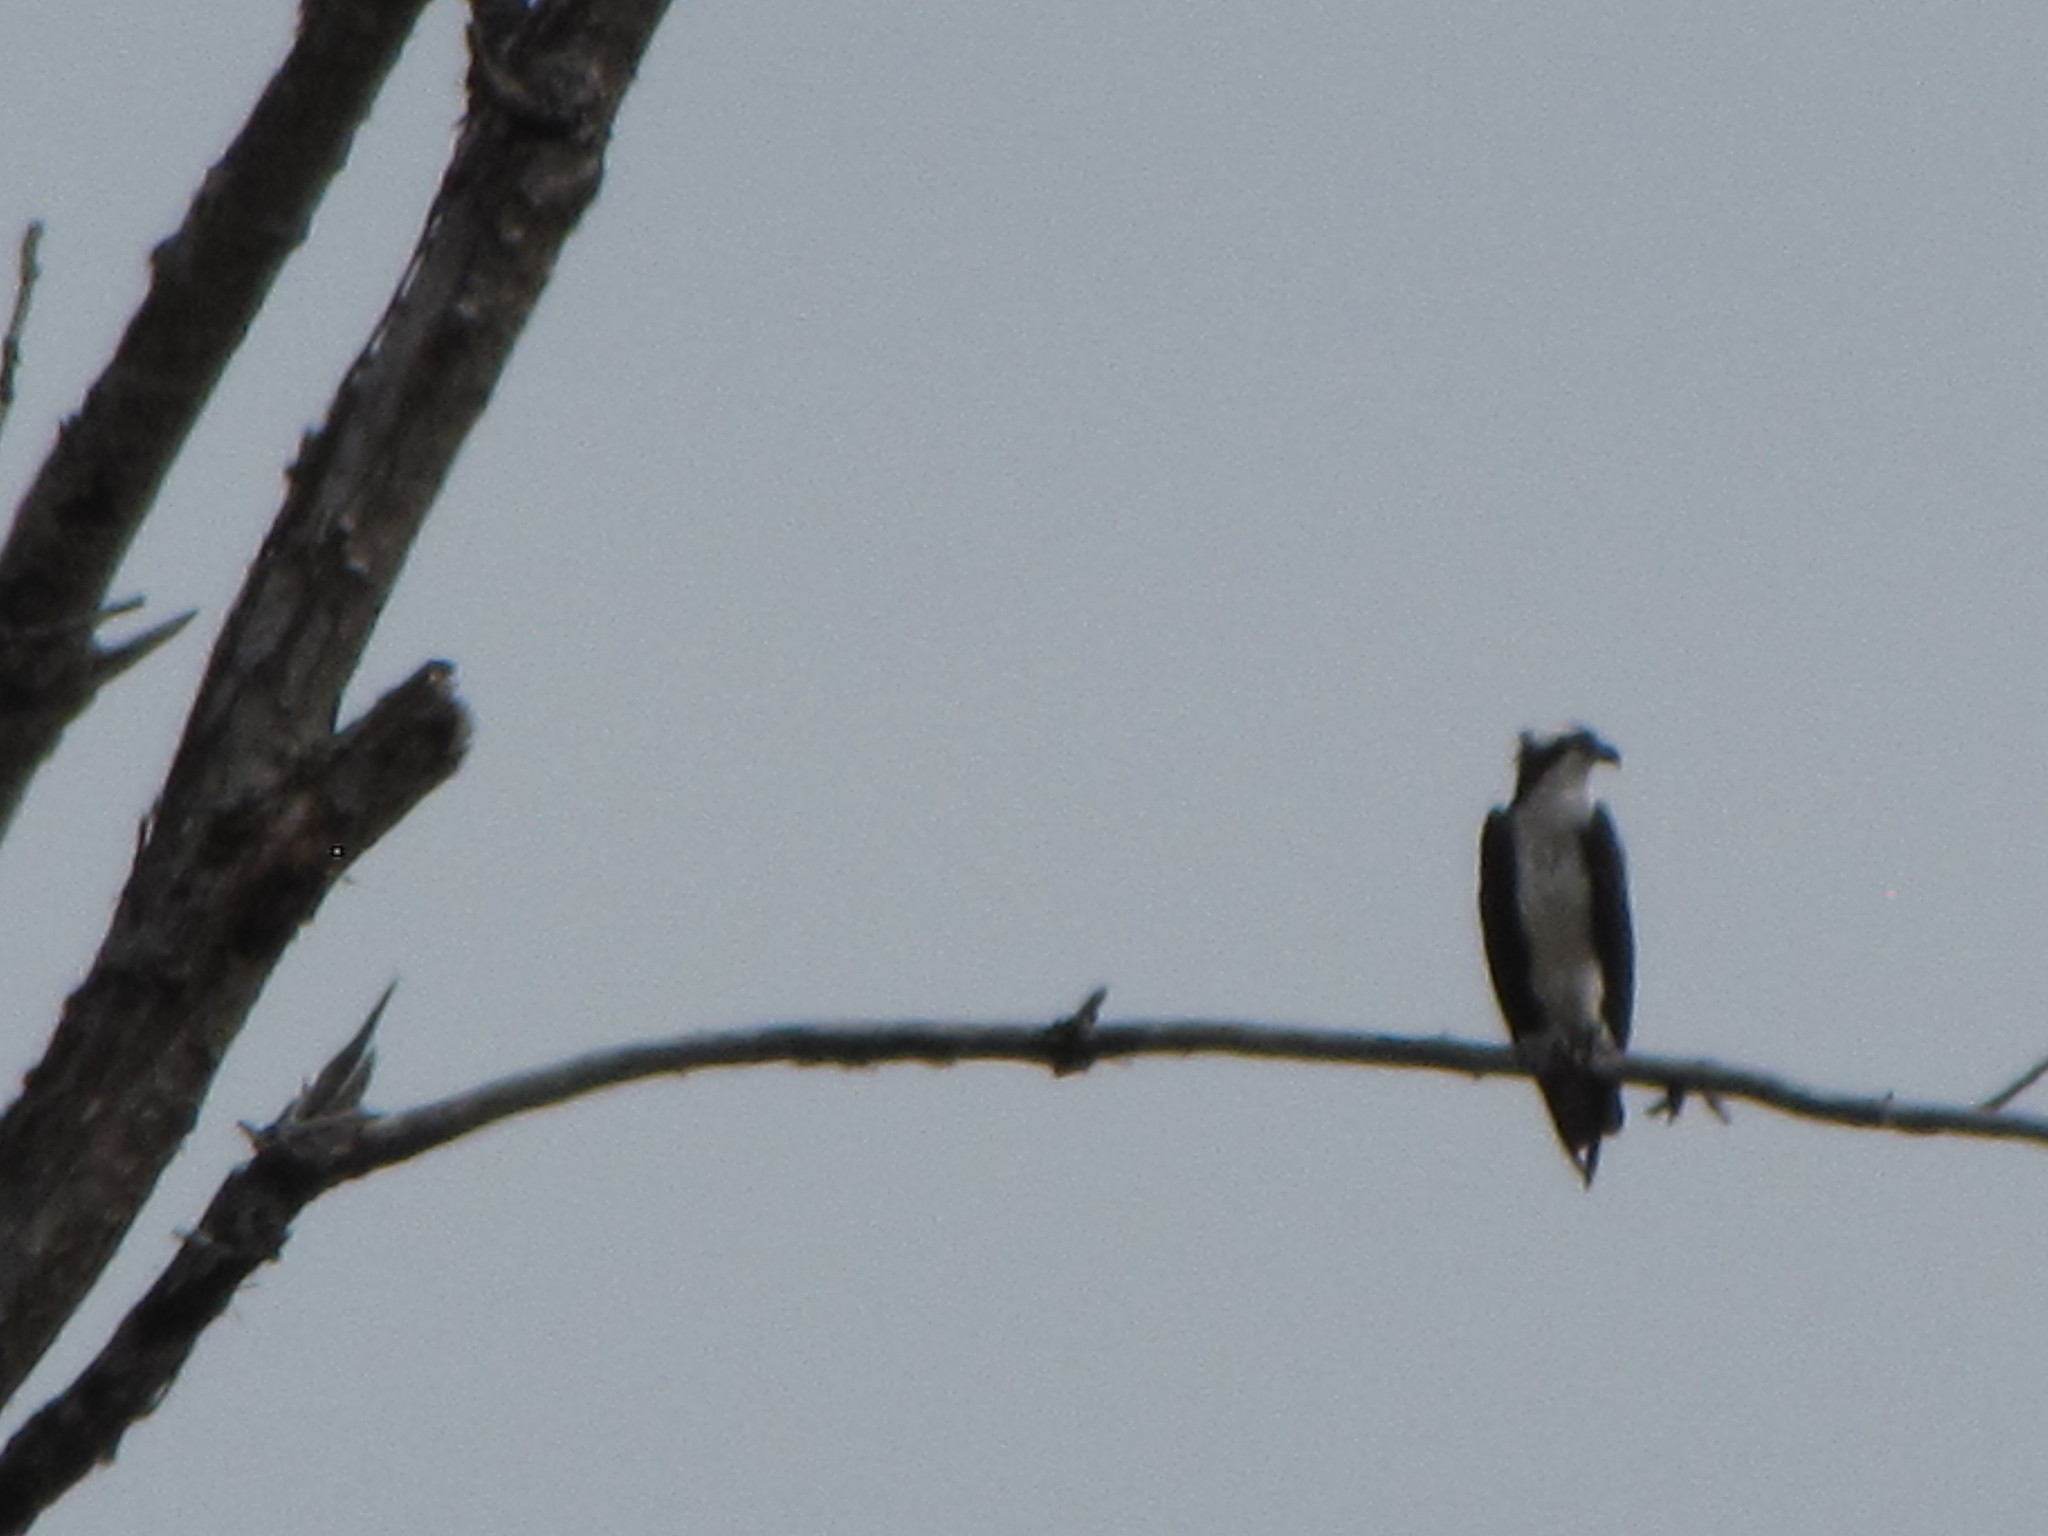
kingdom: Animalia
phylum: Chordata
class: Aves
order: Accipitriformes
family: Pandionidae
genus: Pandion
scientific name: Pandion haliaetus
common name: Osprey
